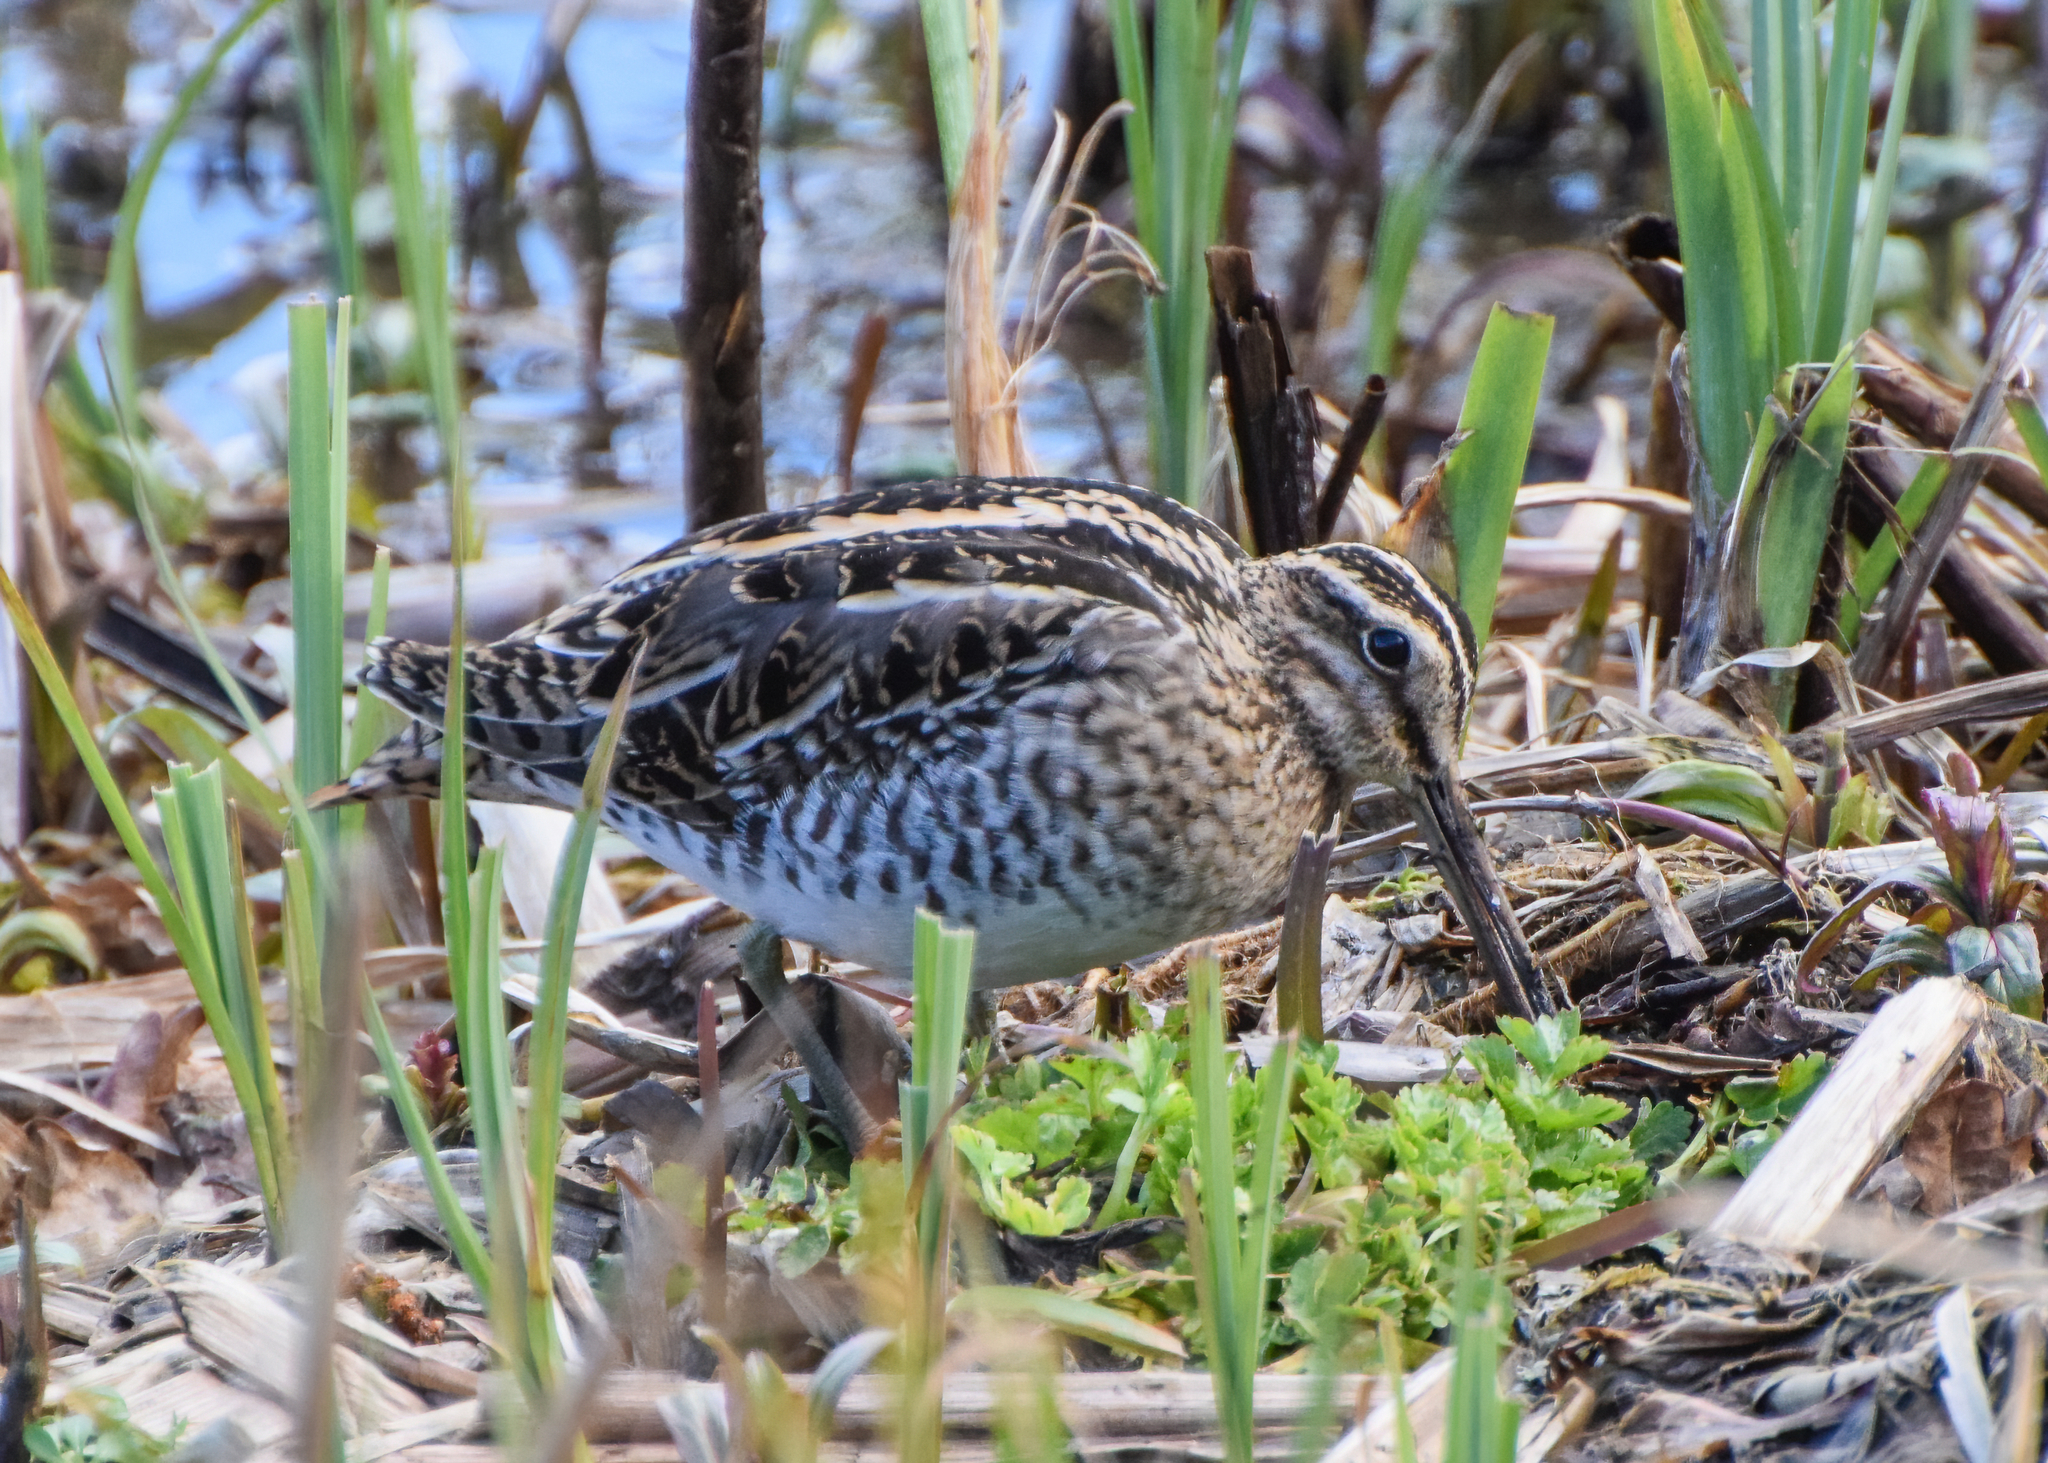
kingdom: Animalia
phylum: Chordata
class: Aves
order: Charadriiformes
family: Scolopacidae
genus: Gallinago
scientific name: Gallinago gallinago
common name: Common snipe
